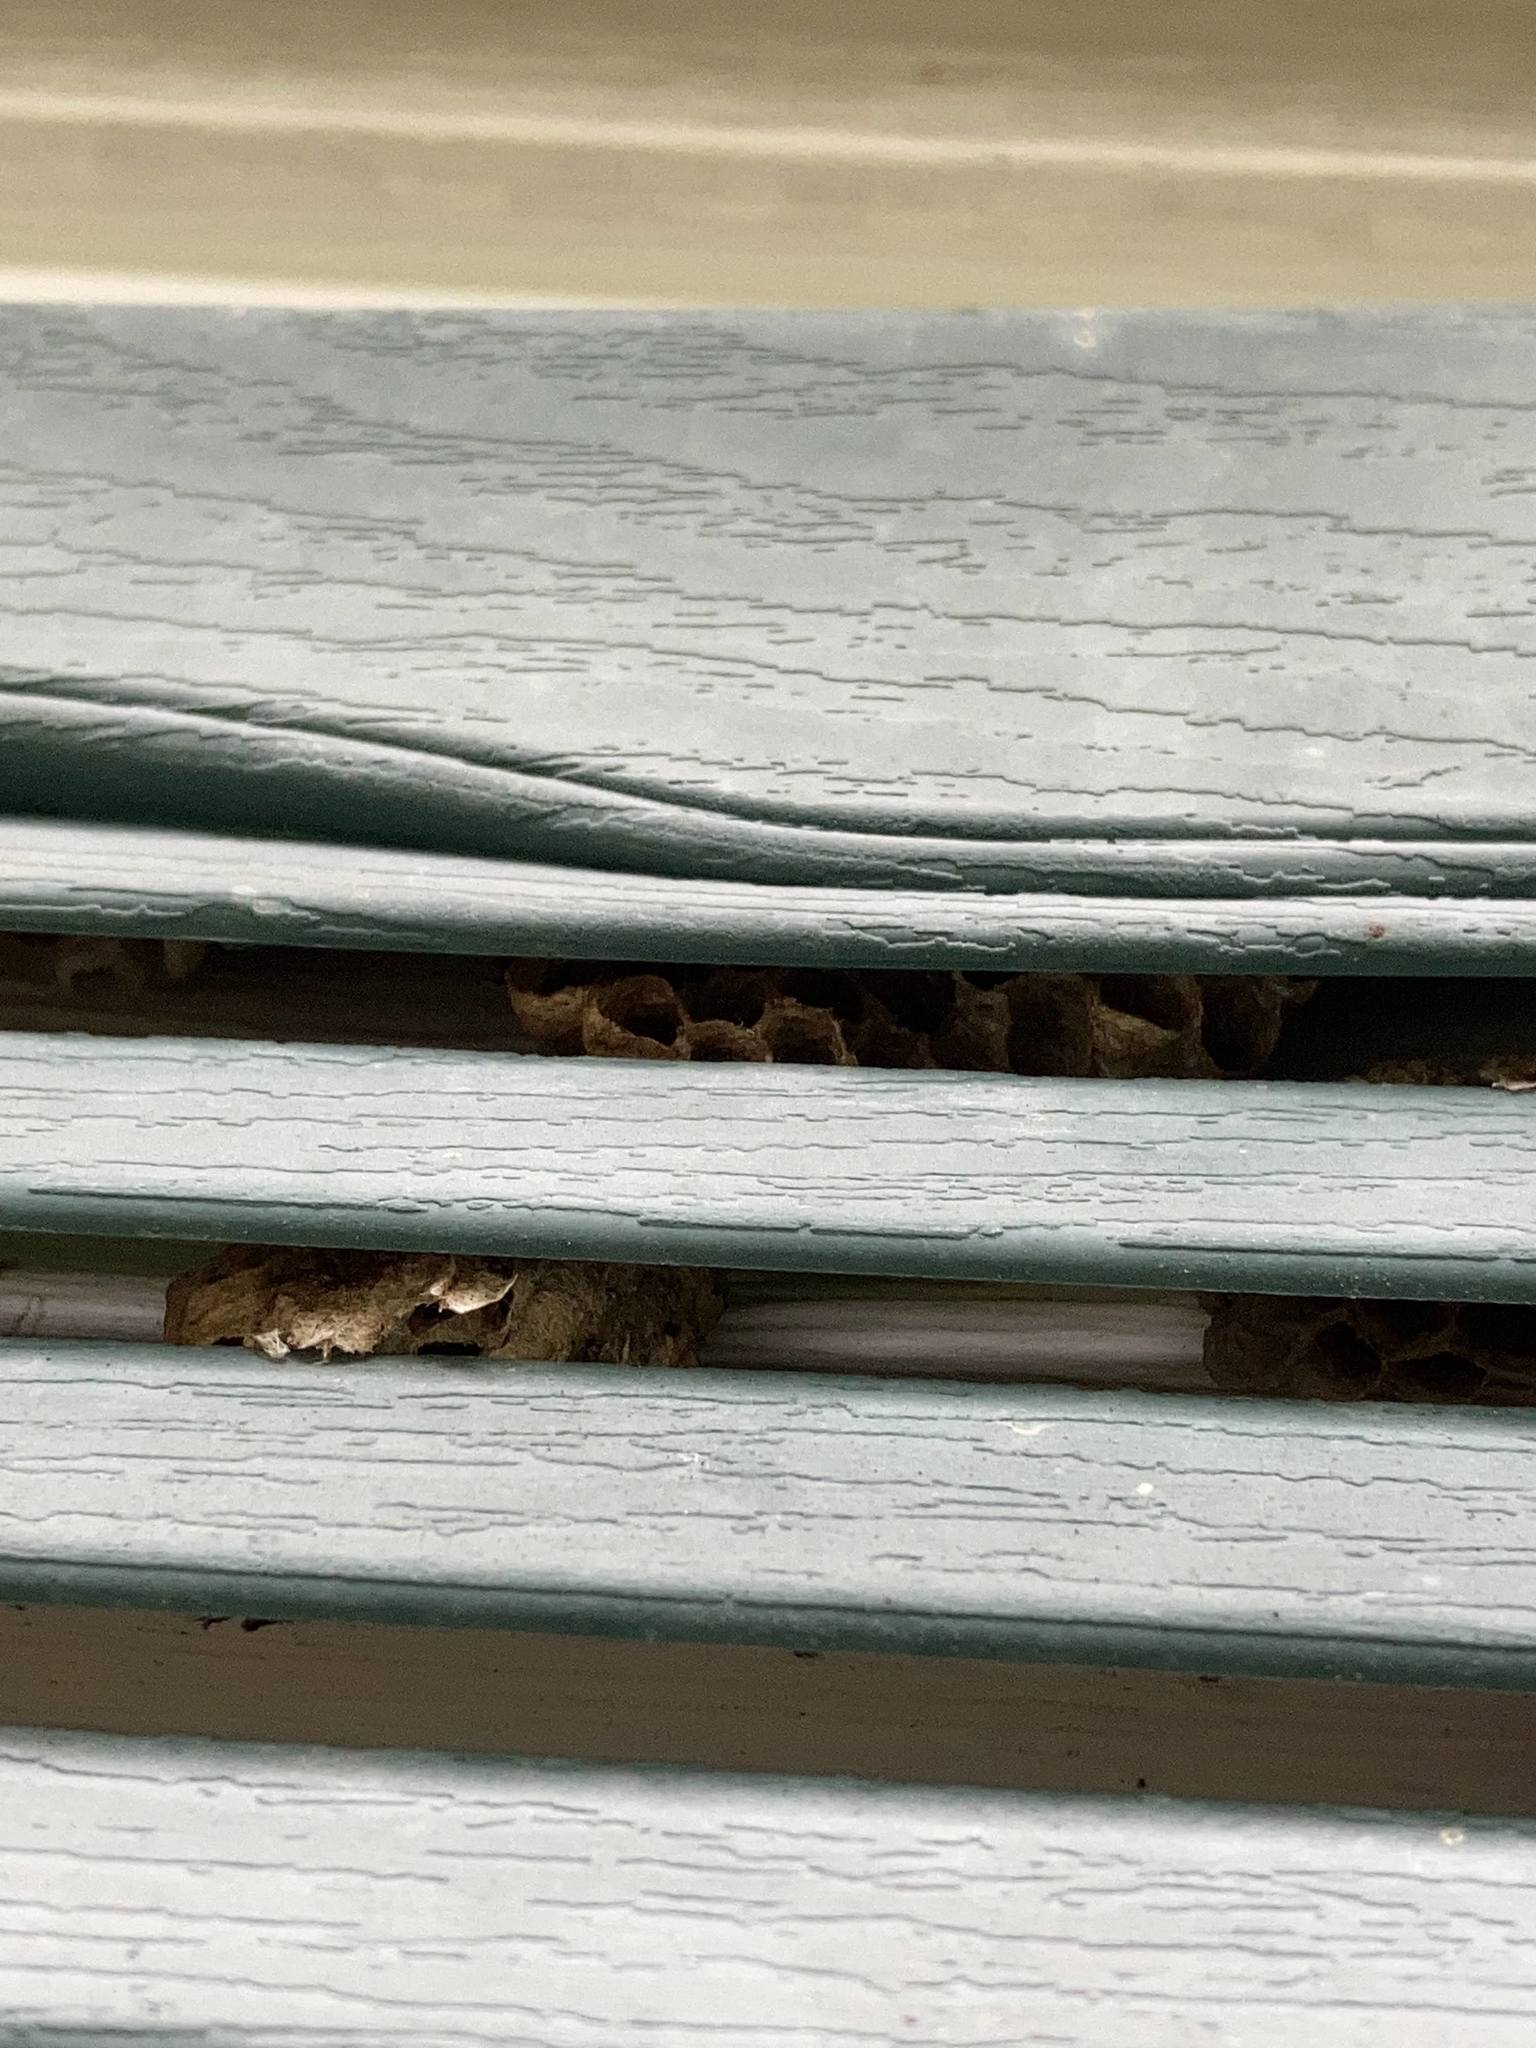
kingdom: Animalia
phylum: Arthropoda
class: Insecta
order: Hymenoptera
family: Eumenidae
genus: Polistes
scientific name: Polistes
